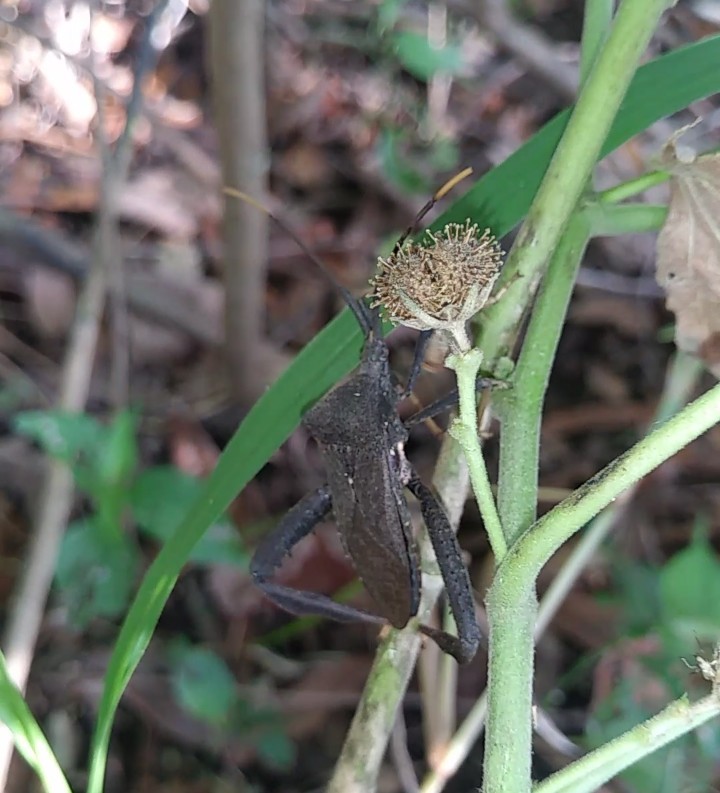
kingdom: Animalia
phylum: Arthropoda
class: Insecta
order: Hemiptera
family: Coreidae
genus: Acanthocephala
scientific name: Acanthocephala terminalis
